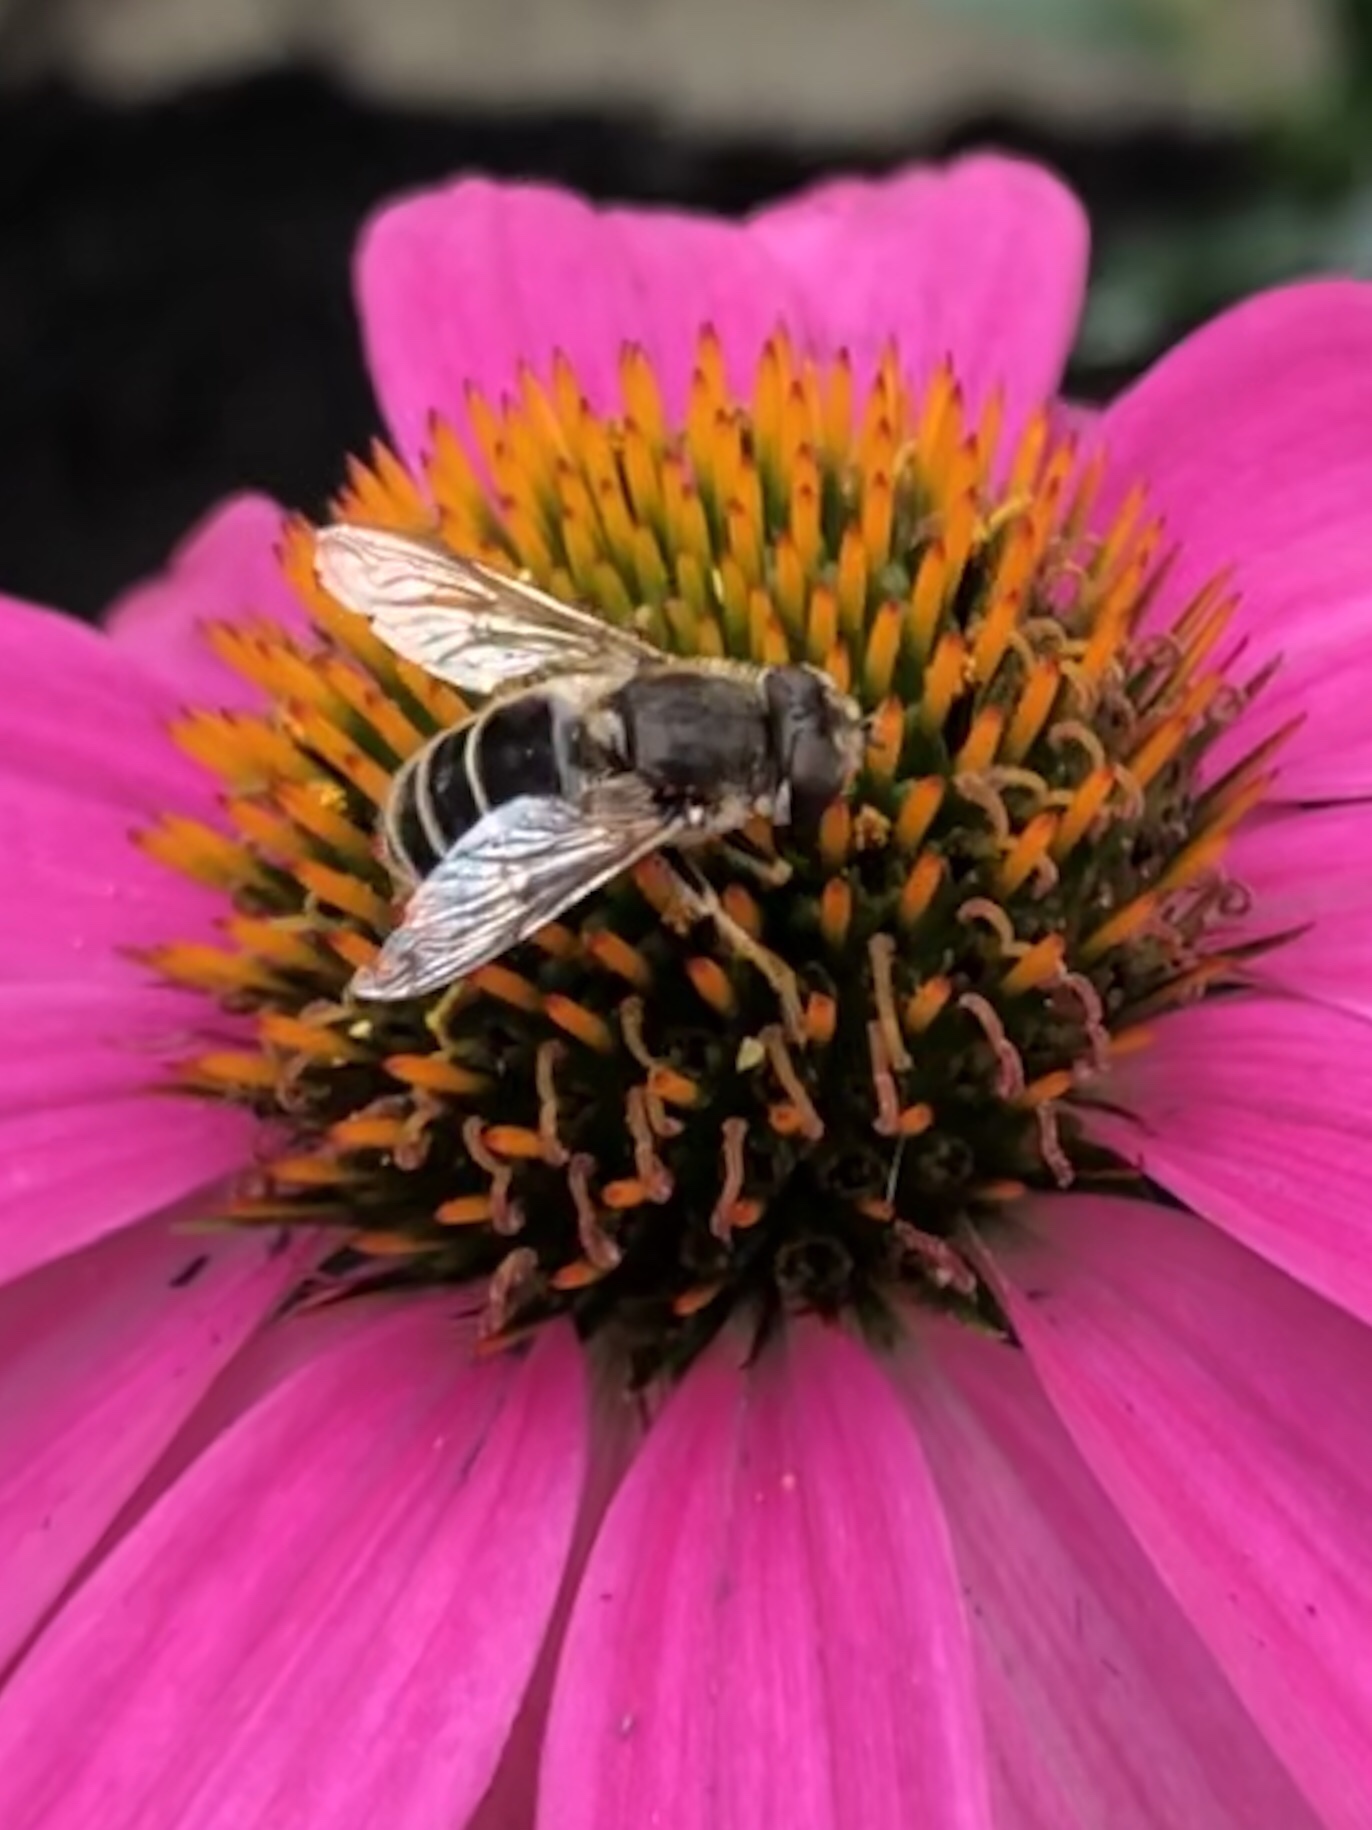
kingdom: Animalia
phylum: Arthropoda
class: Insecta
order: Diptera
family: Syrphidae
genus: Eristalis
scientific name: Eristalis arbustorum
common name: Hover fly
